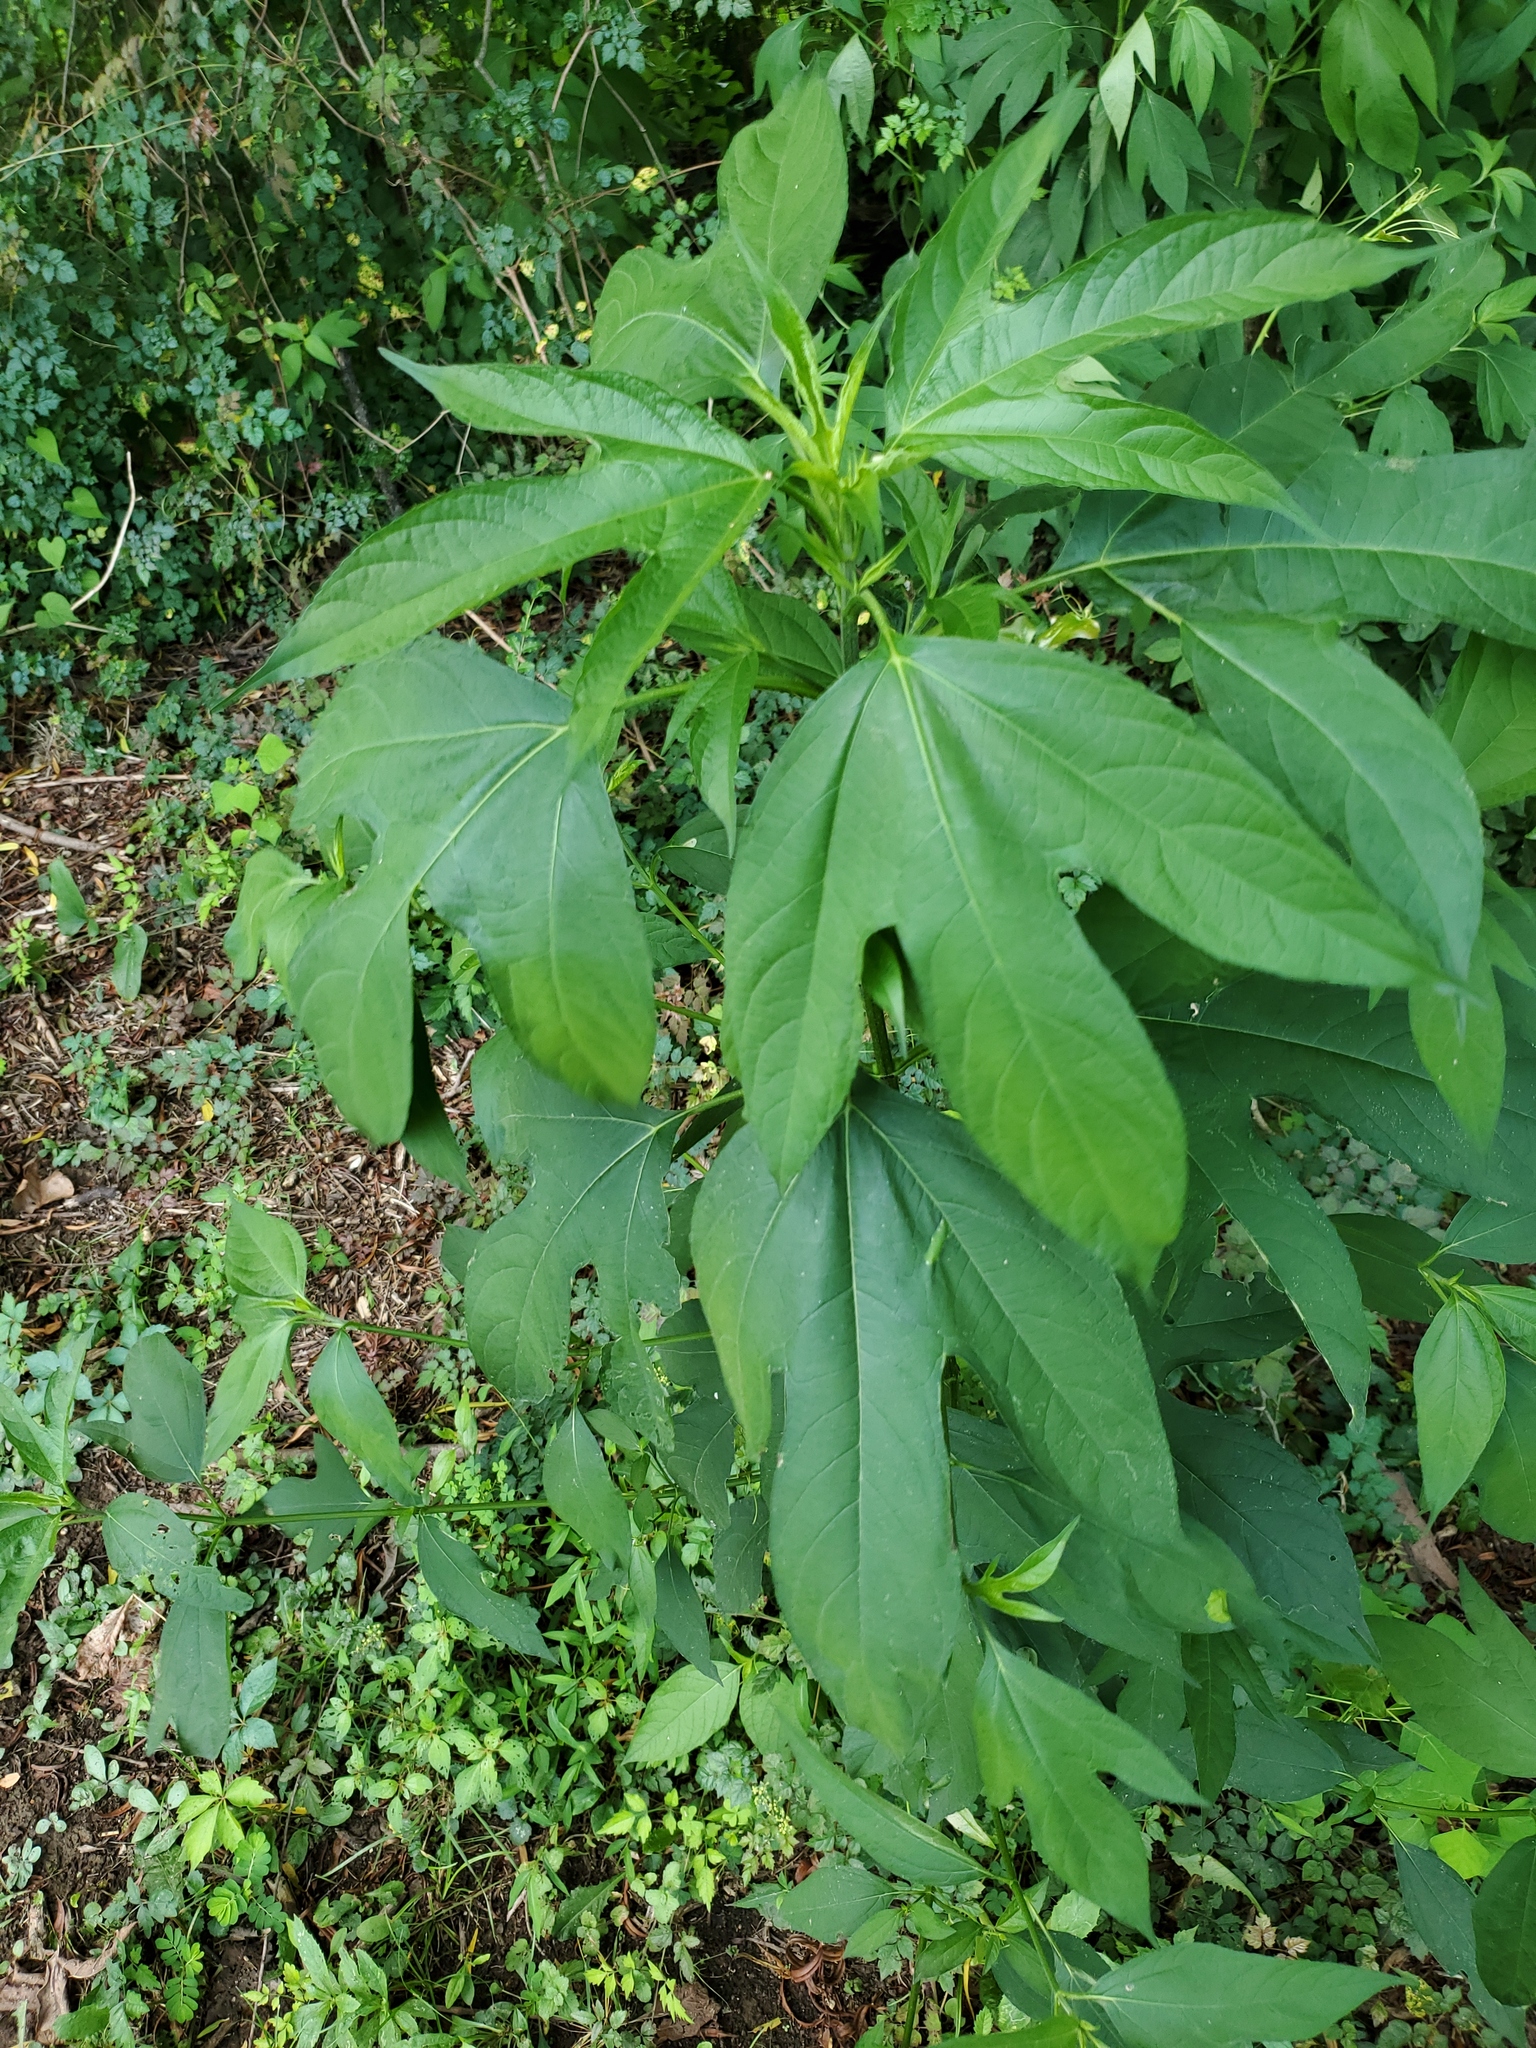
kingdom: Plantae
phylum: Tracheophyta
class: Magnoliopsida
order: Asterales
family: Asteraceae
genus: Ambrosia
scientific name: Ambrosia trifida
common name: Giant ragweed
